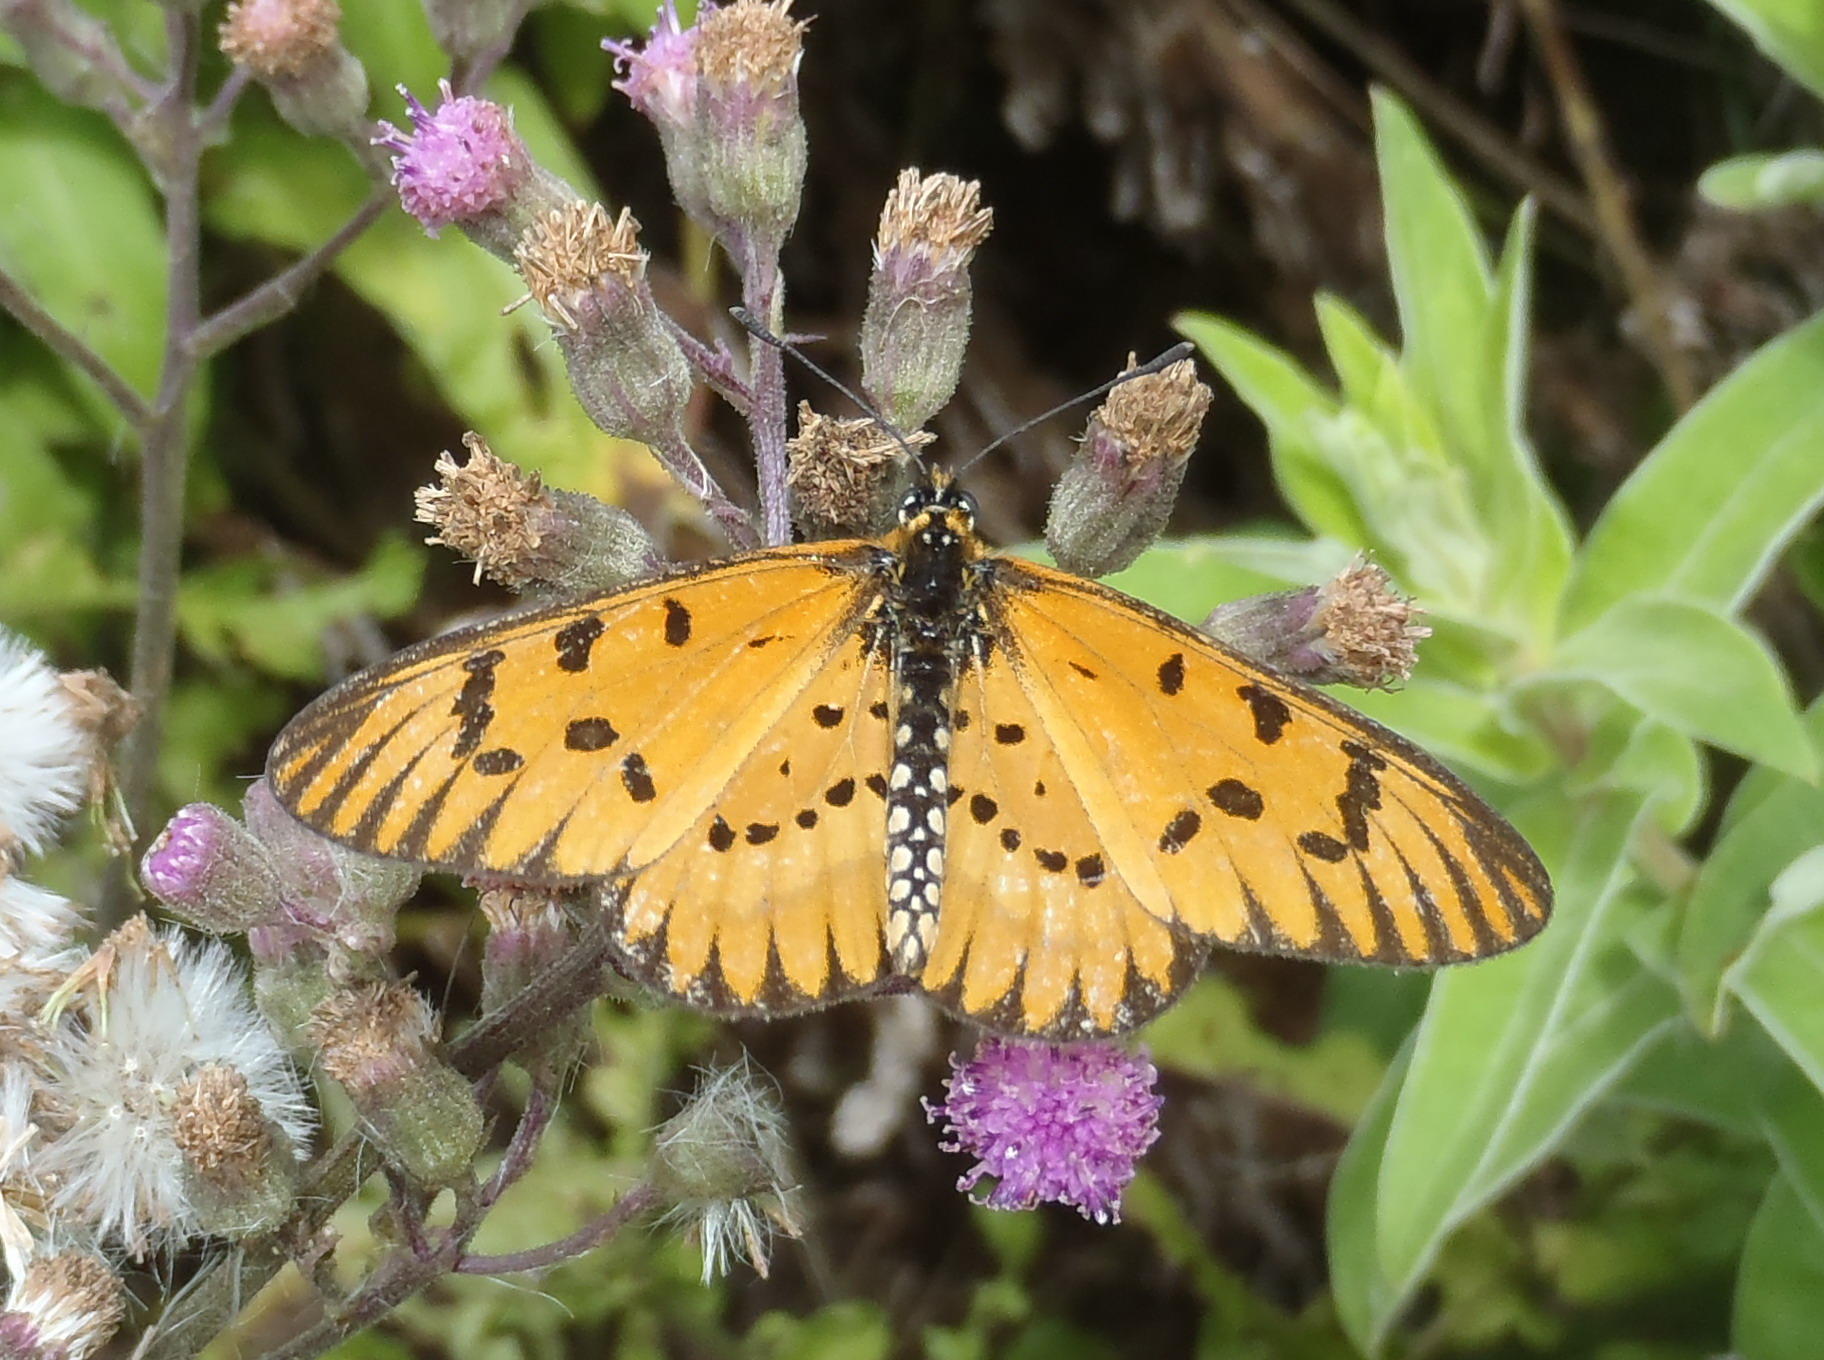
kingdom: Animalia
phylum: Arthropoda
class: Insecta
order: Lepidoptera
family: Nymphalidae
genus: Acraea
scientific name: Acraea rahira
